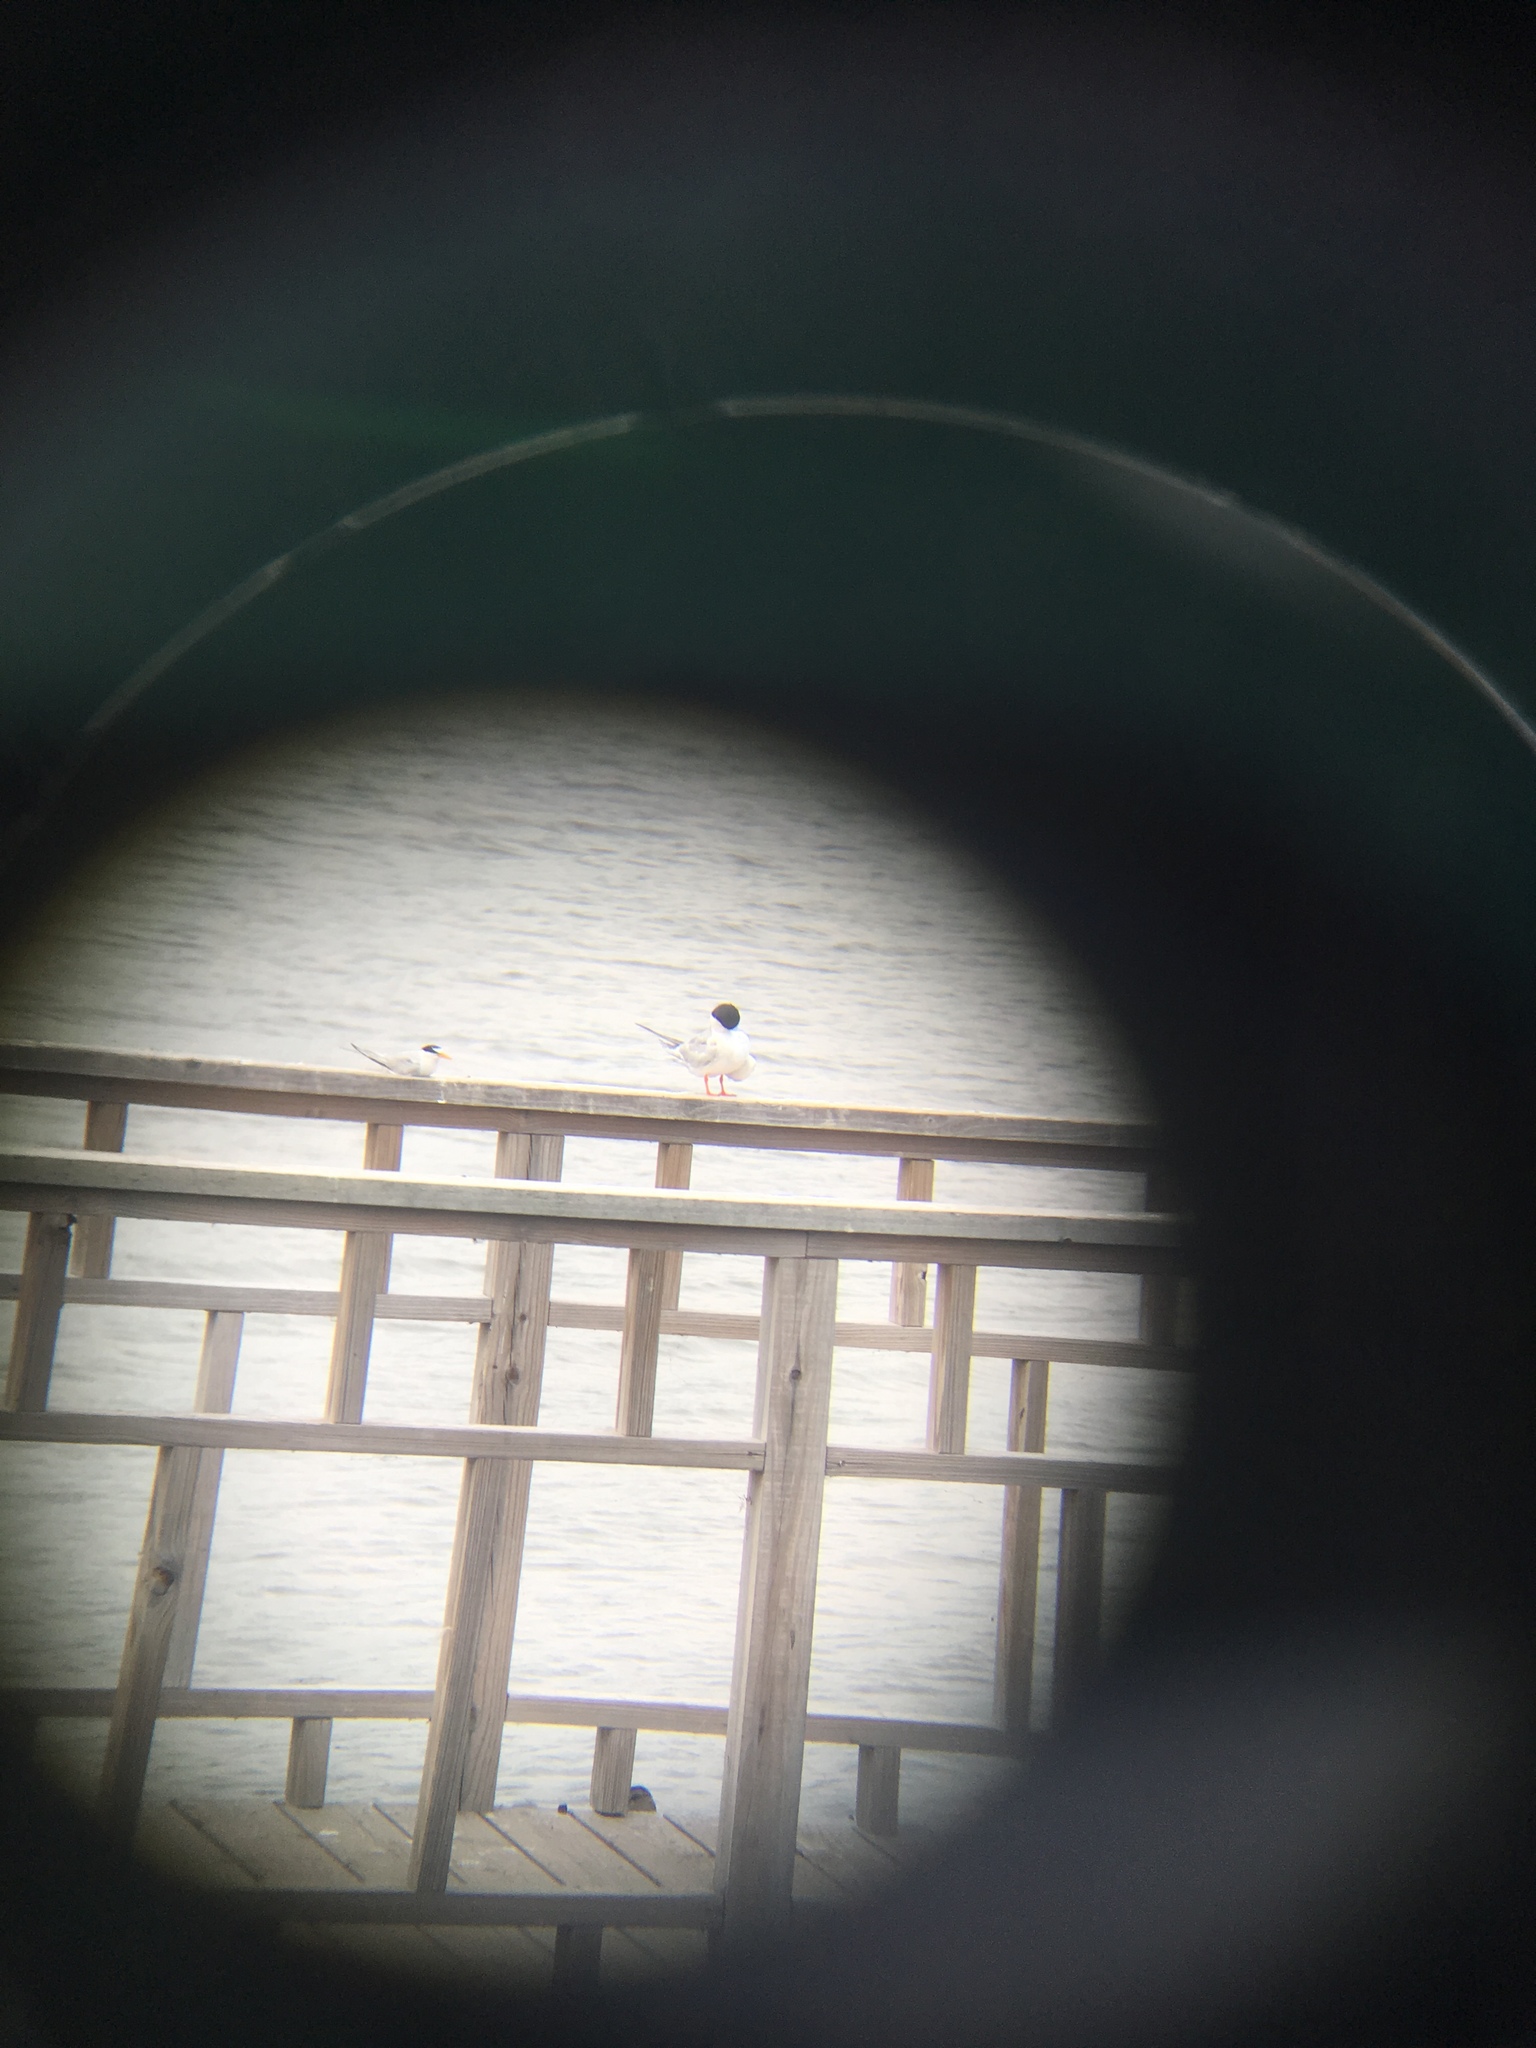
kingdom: Animalia
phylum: Chordata
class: Aves
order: Charadriiformes
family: Laridae
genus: Sternula
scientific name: Sternula antillarum
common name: Least tern
